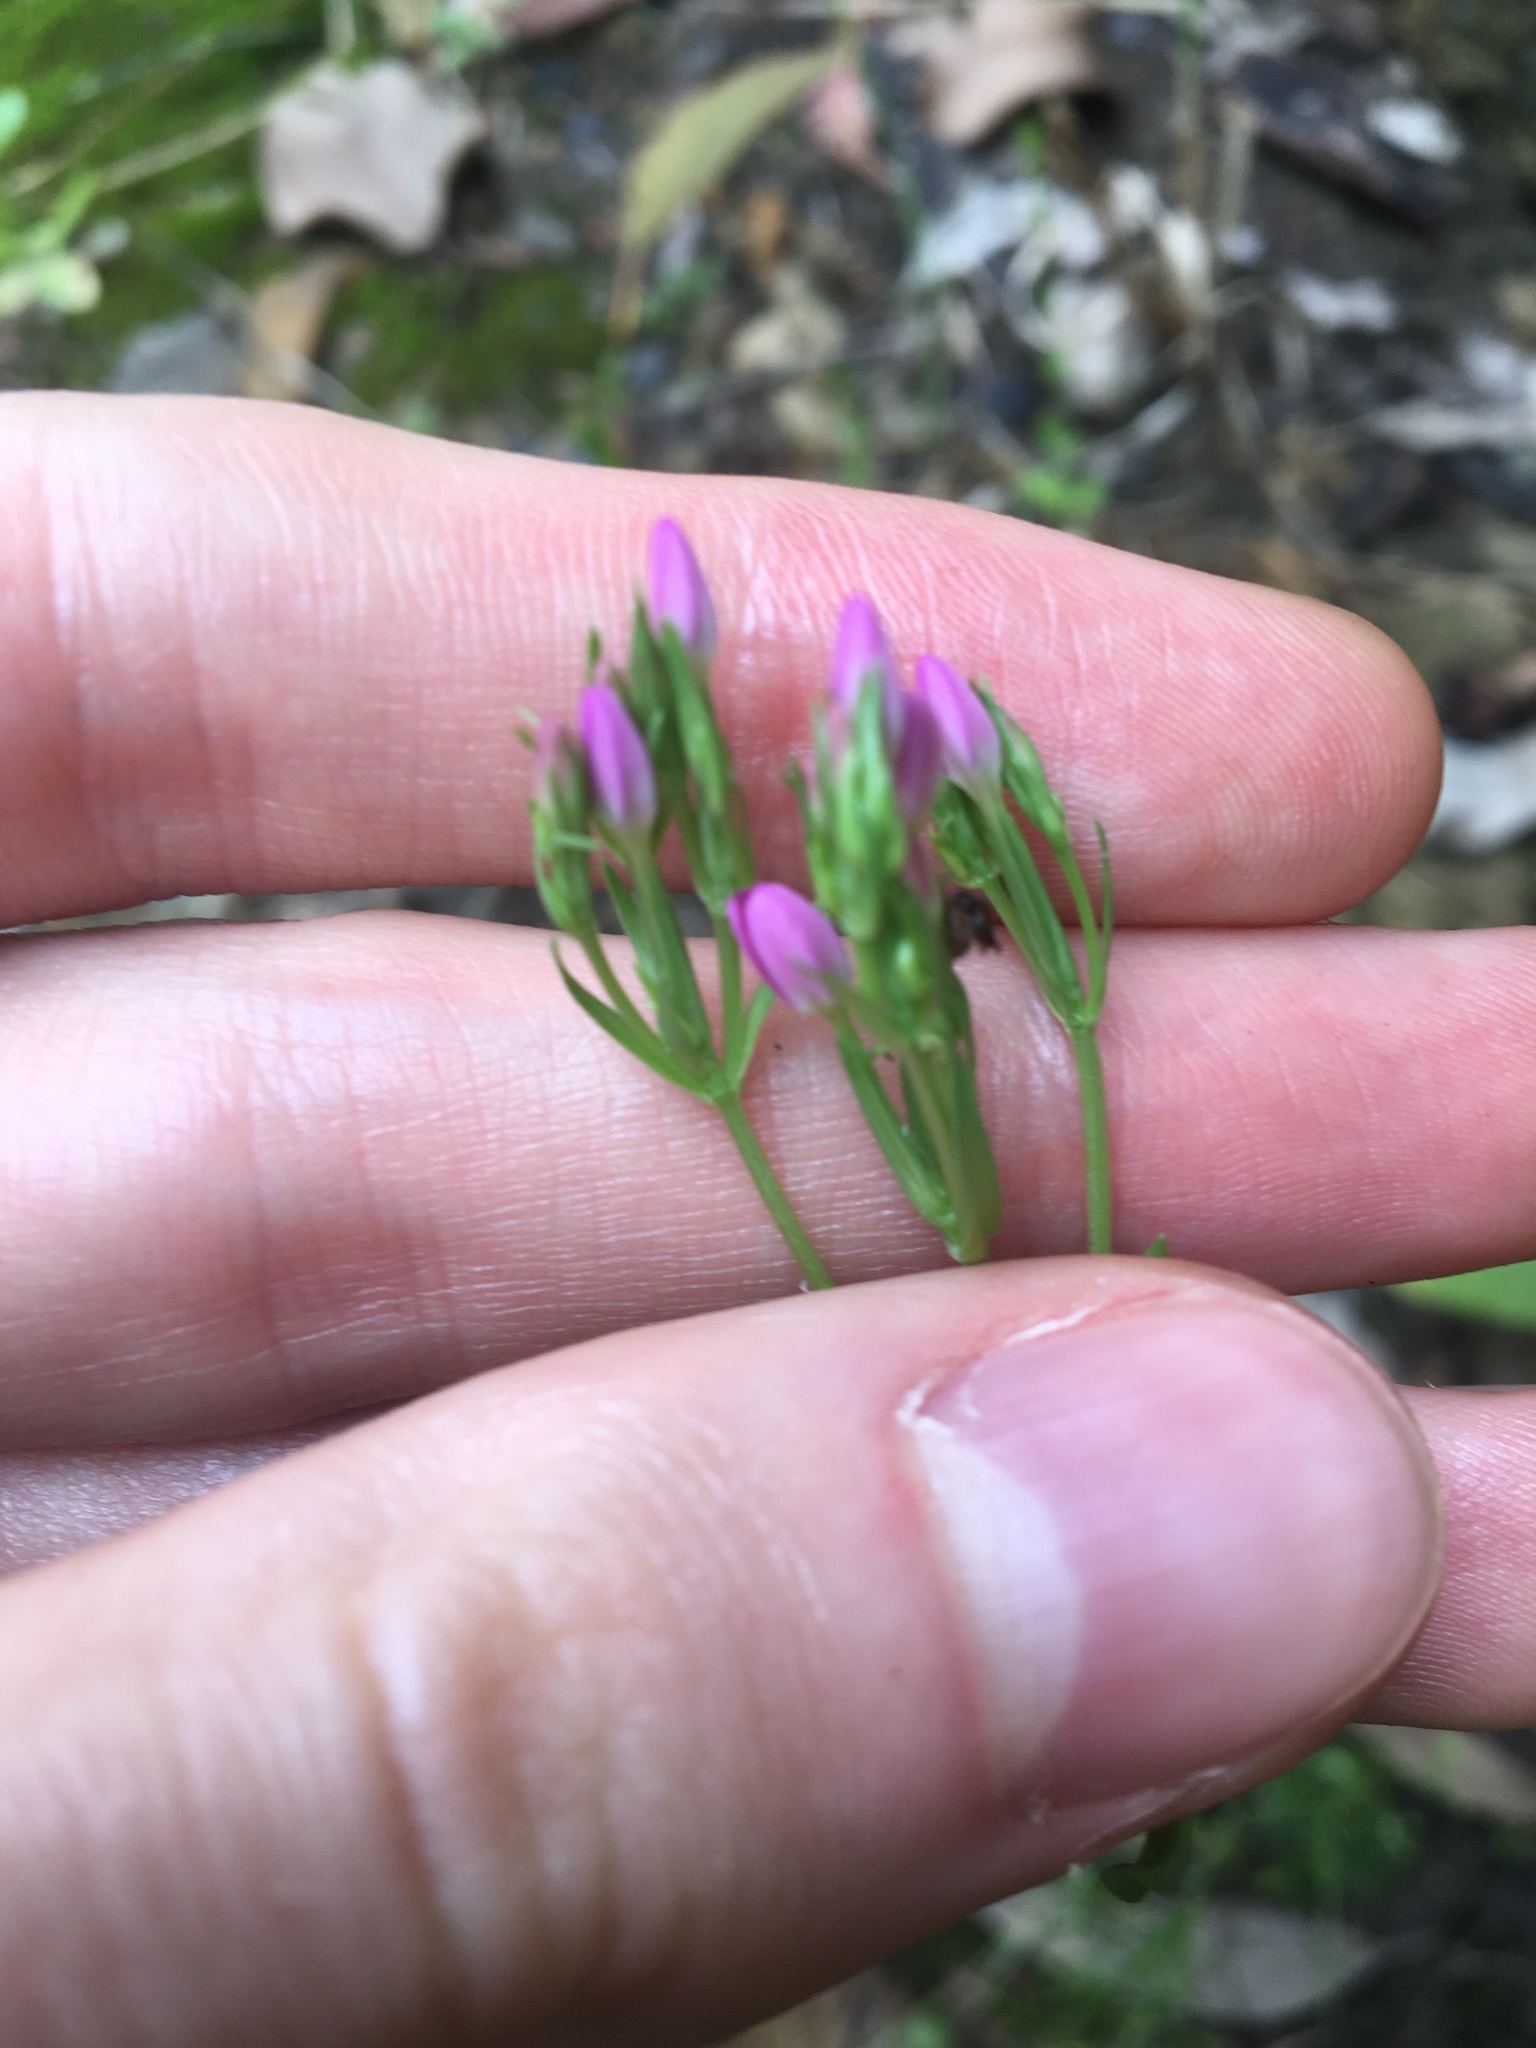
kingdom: Plantae
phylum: Tracheophyta
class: Magnoliopsida
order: Gentianales
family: Gentianaceae
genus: Centaurium
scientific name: Centaurium erythraea
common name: Common centaury
